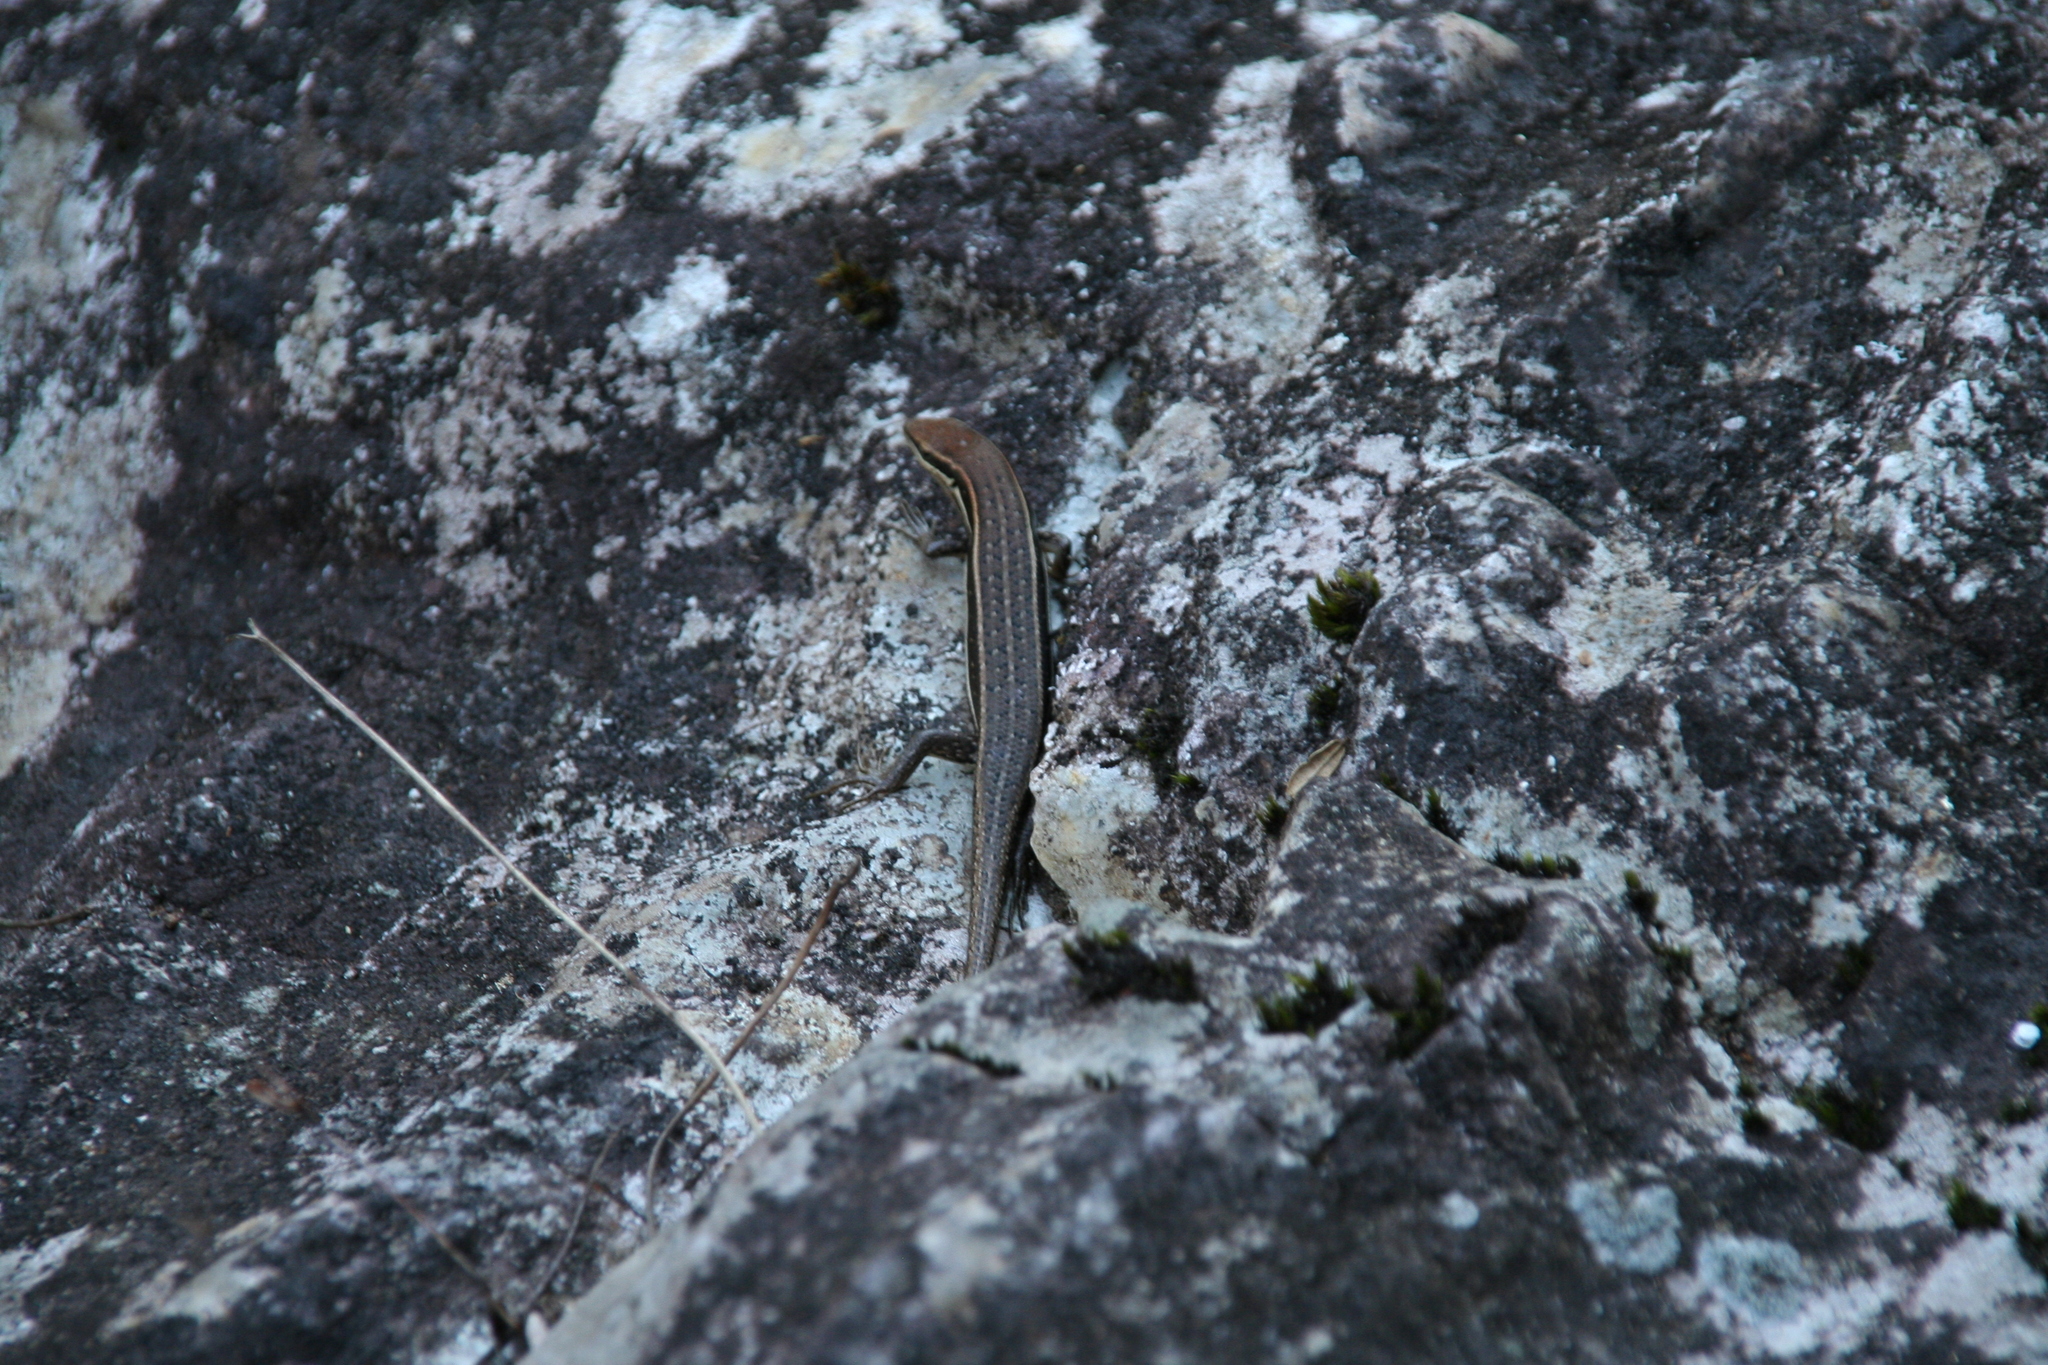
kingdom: Animalia
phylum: Chordata
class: Squamata
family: Scincidae
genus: Trachylepis
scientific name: Trachylepis gravenhorstii
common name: Gravenhorst's mabuya
